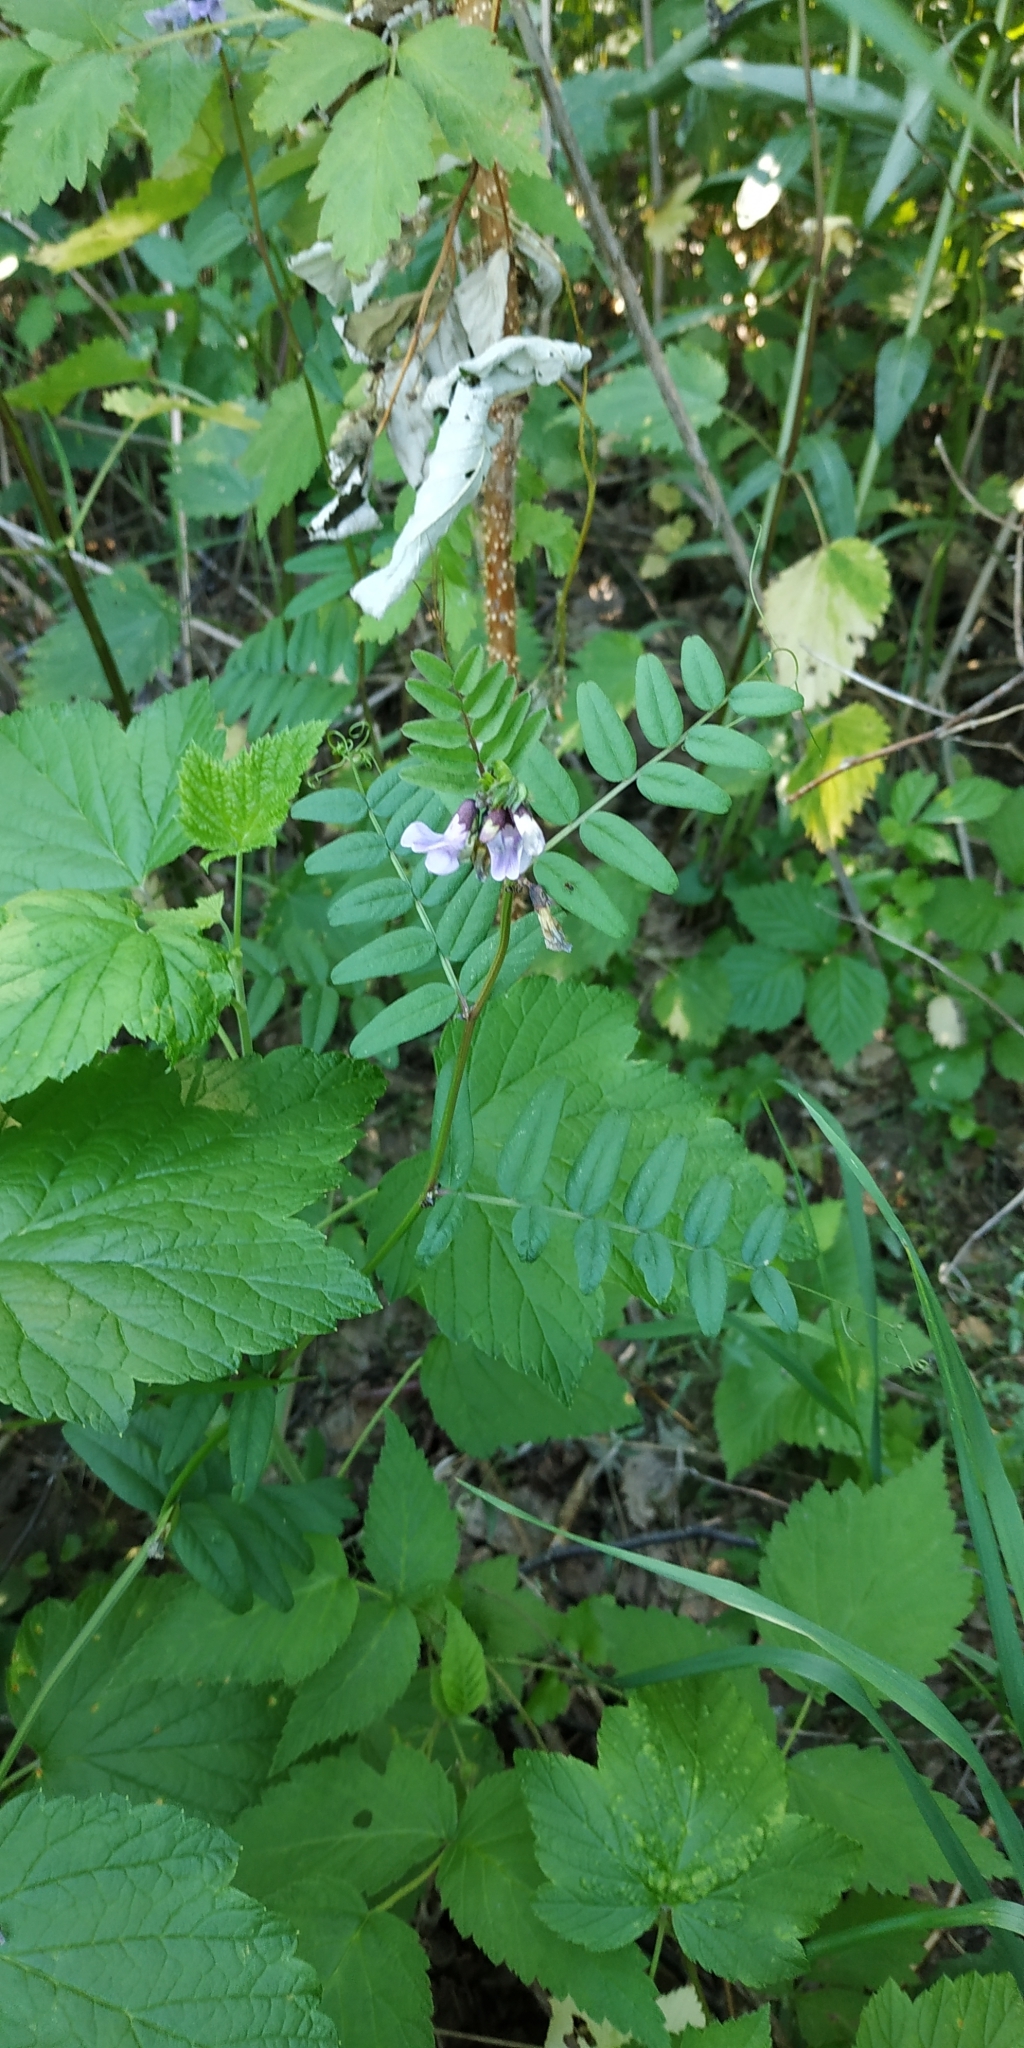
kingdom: Plantae
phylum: Tracheophyta
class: Magnoliopsida
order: Fabales
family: Fabaceae
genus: Vicia
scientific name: Vicia sepium
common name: Bush vetch
